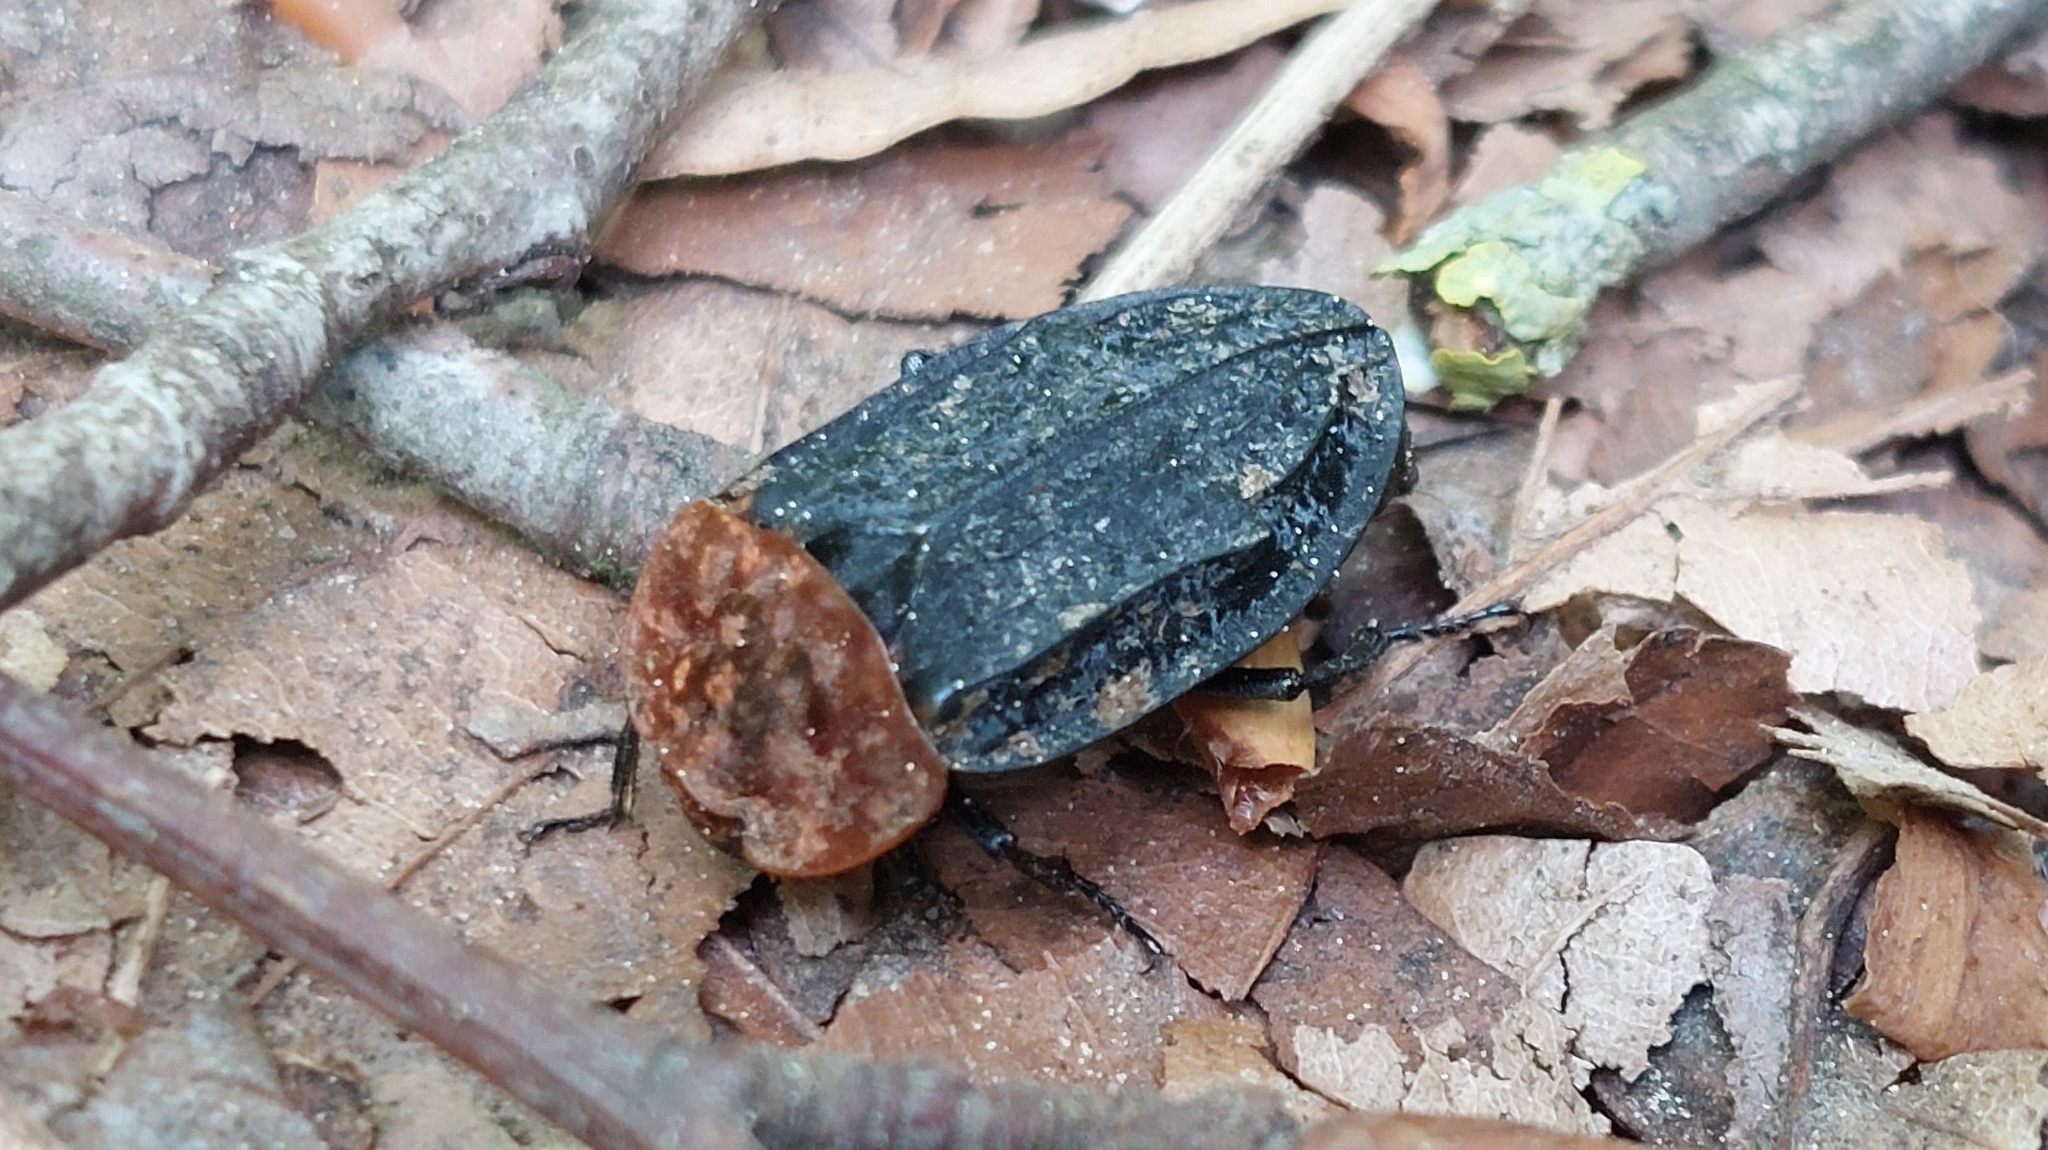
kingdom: Animalia
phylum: Arthropoda
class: Insecta
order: Coleoptera
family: Staphylinidae
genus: Oiceoptoma
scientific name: Oiceoptoma thoracicum
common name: Red-breasted carrion beetle
